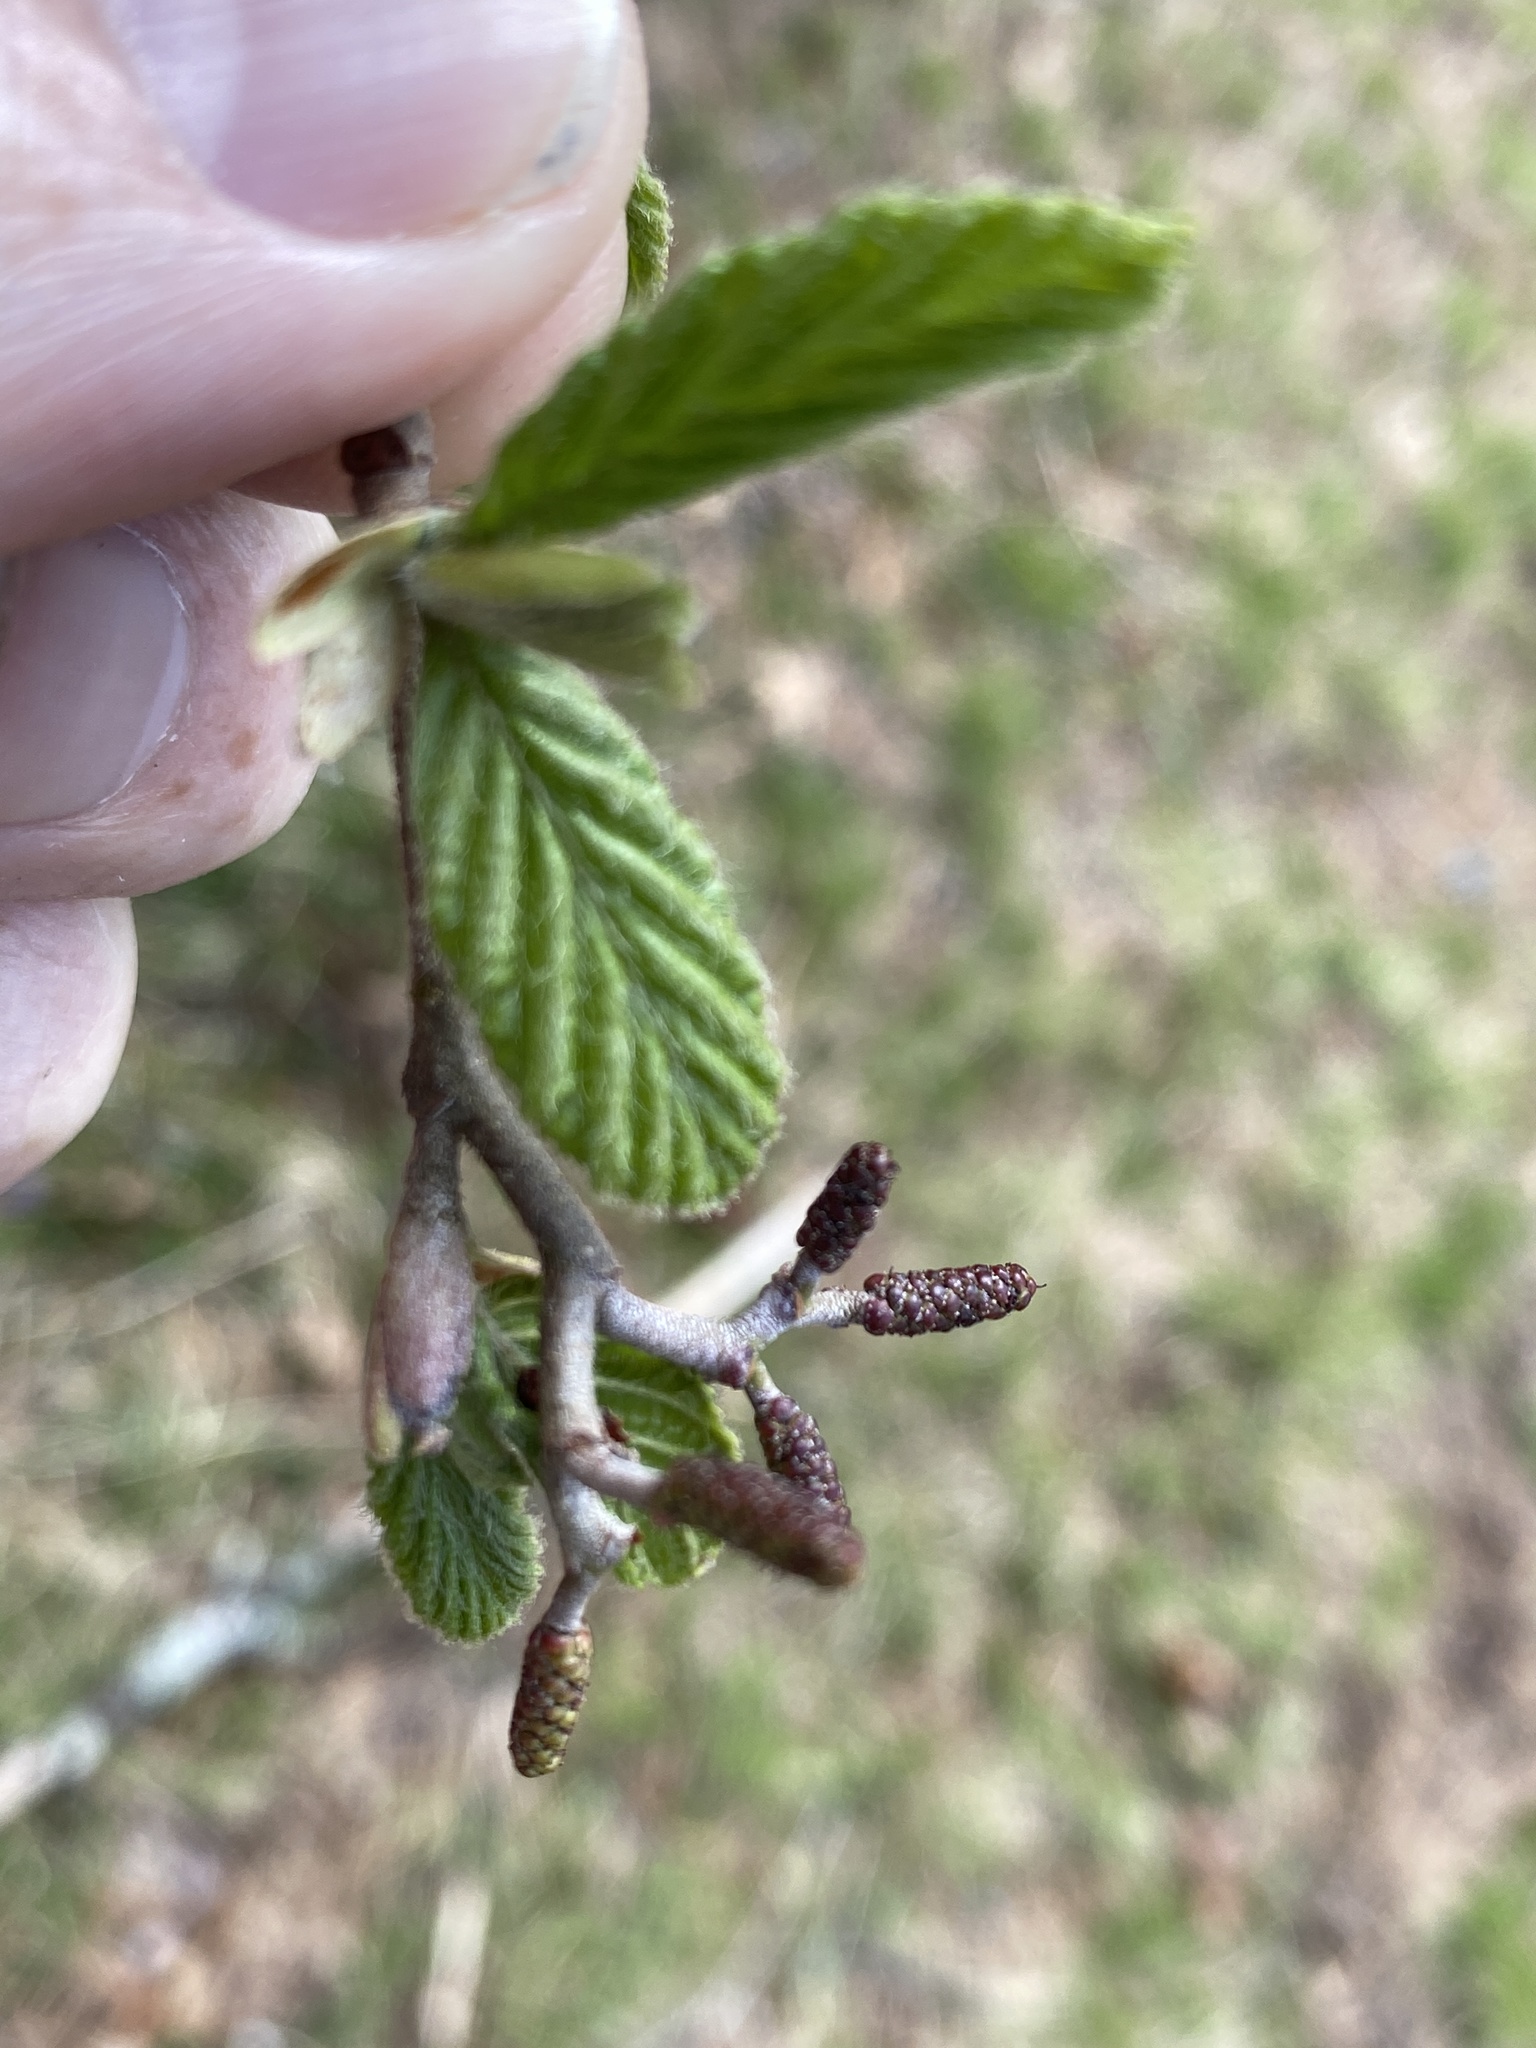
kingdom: Plantae
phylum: Tracheophyta
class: Magnoliopsida
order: Fagales
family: Betulaceae
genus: Alnus
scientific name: Alnus serrulata
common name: Hazel alder
